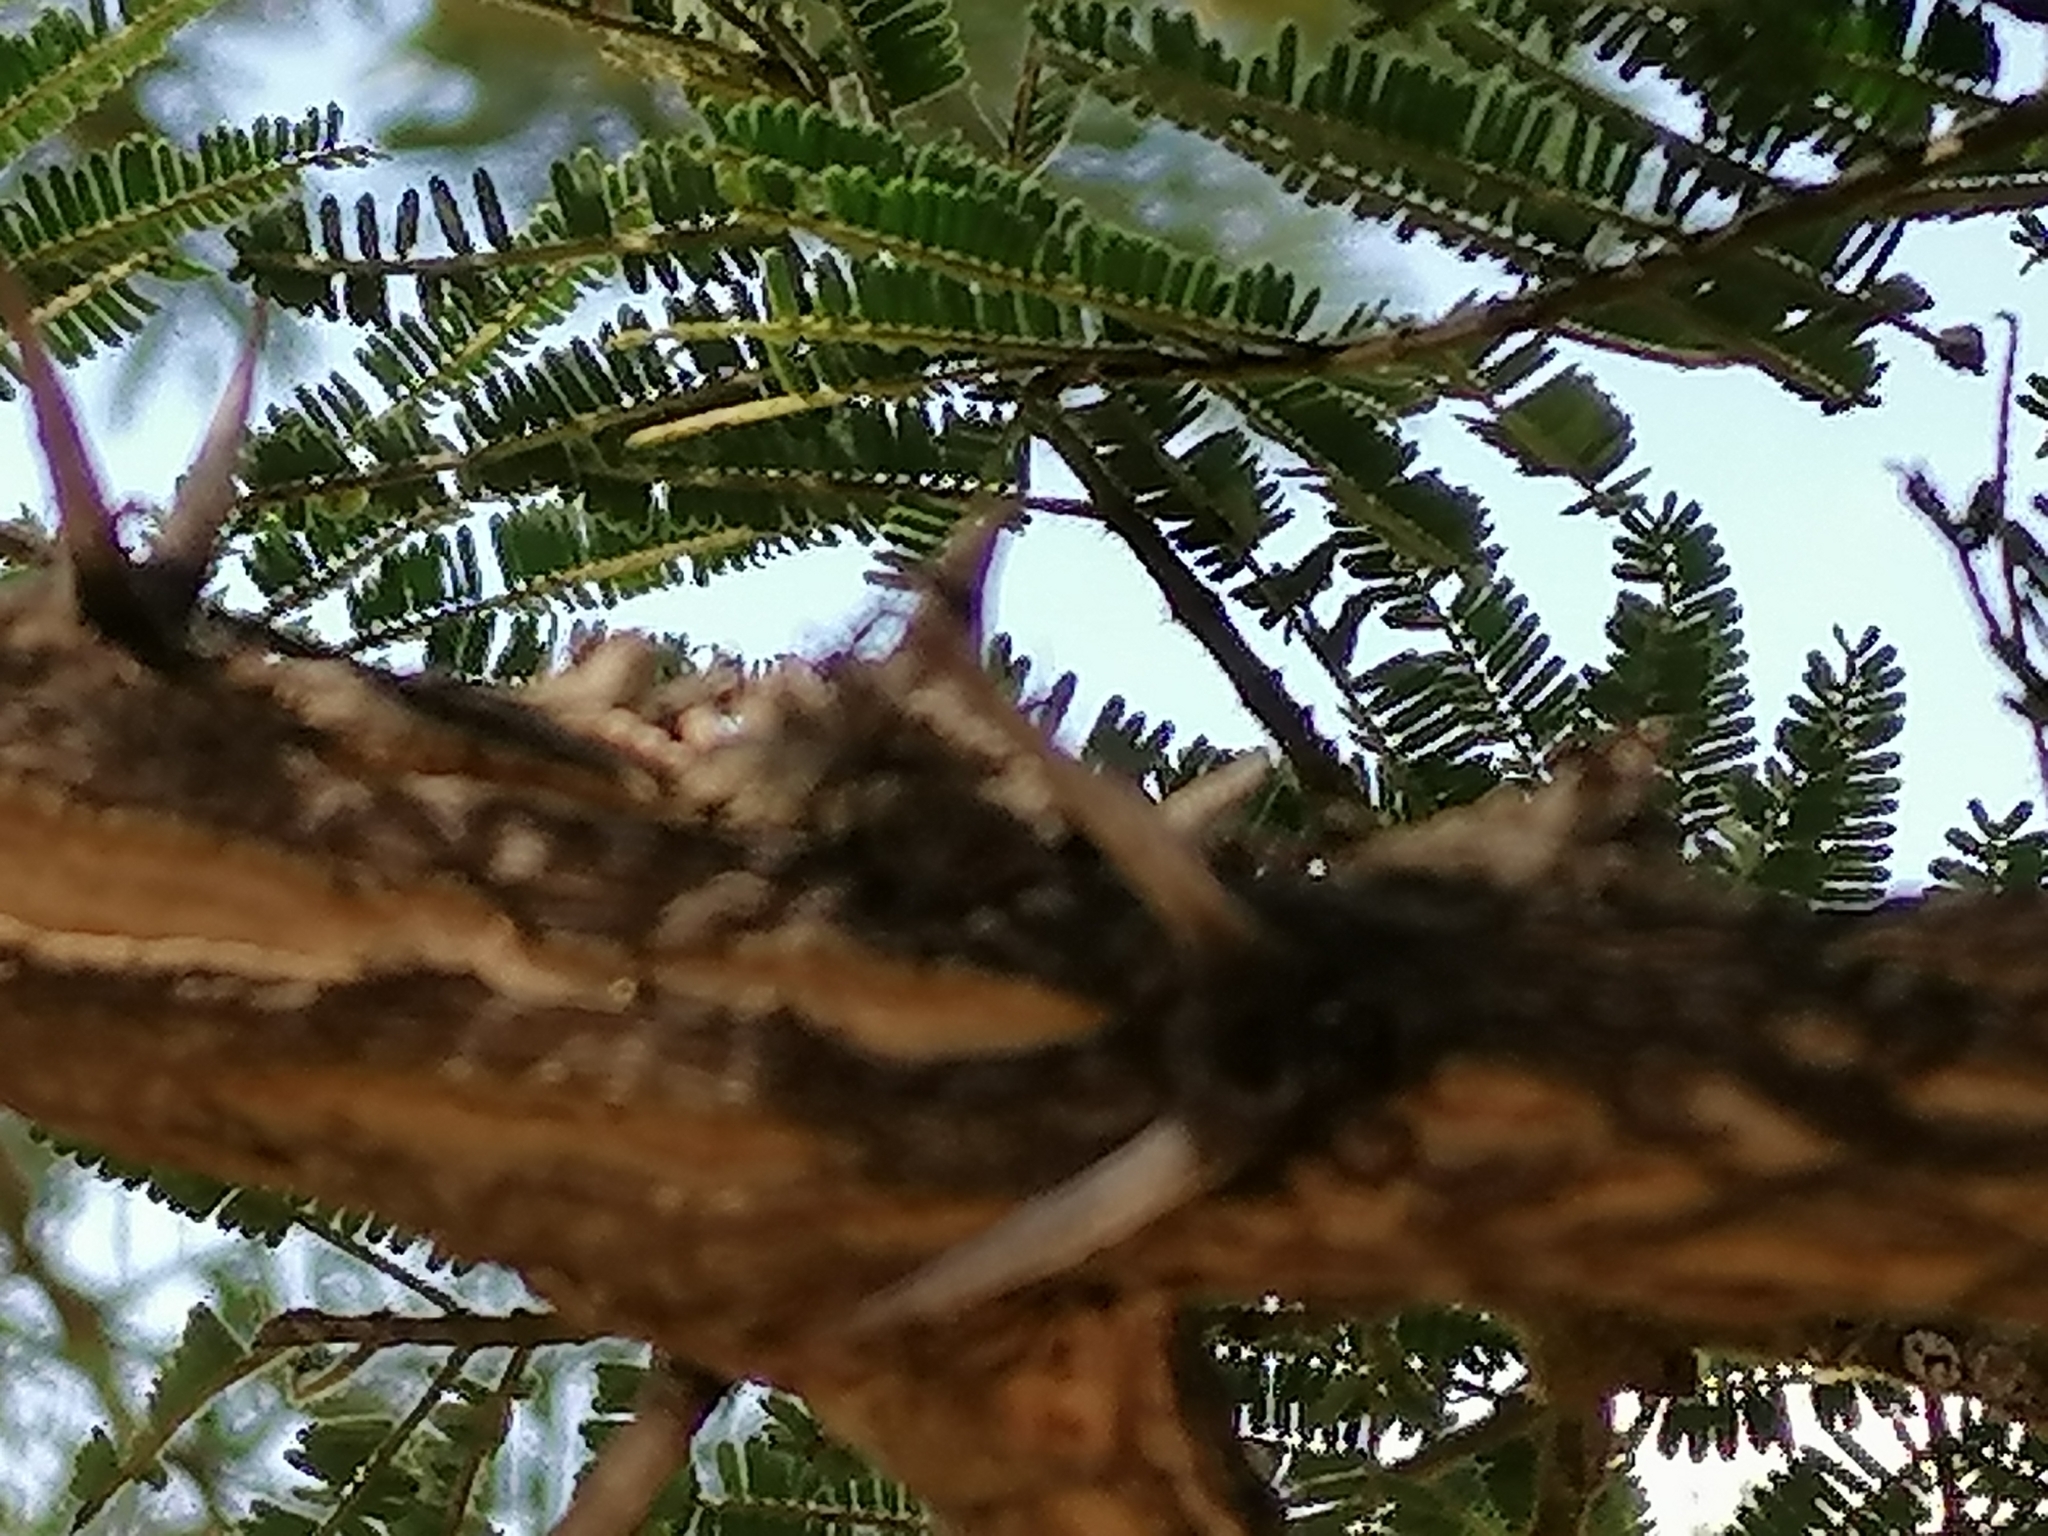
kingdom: Plantae
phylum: Tracheophyta
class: Magnoliopsida
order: Fabales
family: Fabaceae
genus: Vachellia
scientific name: Vachellia sieberiana
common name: Flat-topped thorn
